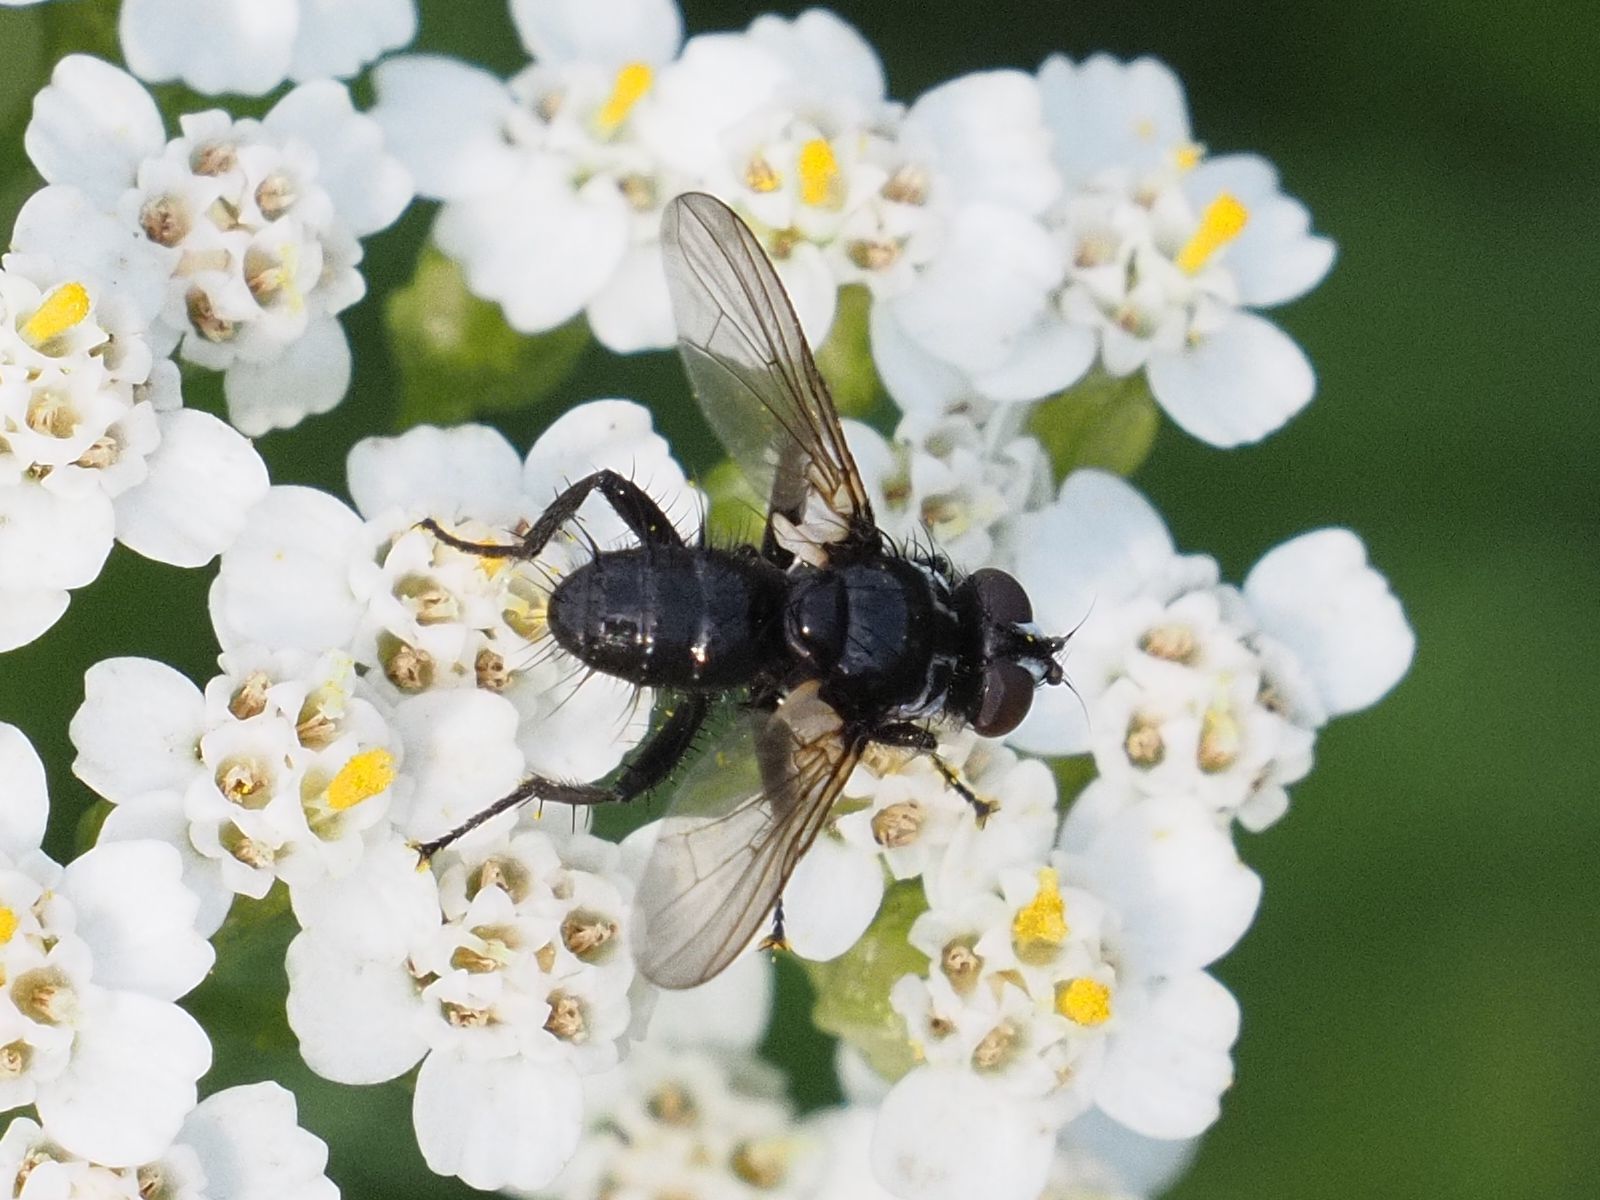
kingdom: Animalia
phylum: Arthropoda
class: Insecta
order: Diptera
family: Tachinidae
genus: Phania
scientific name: Phania funesta
